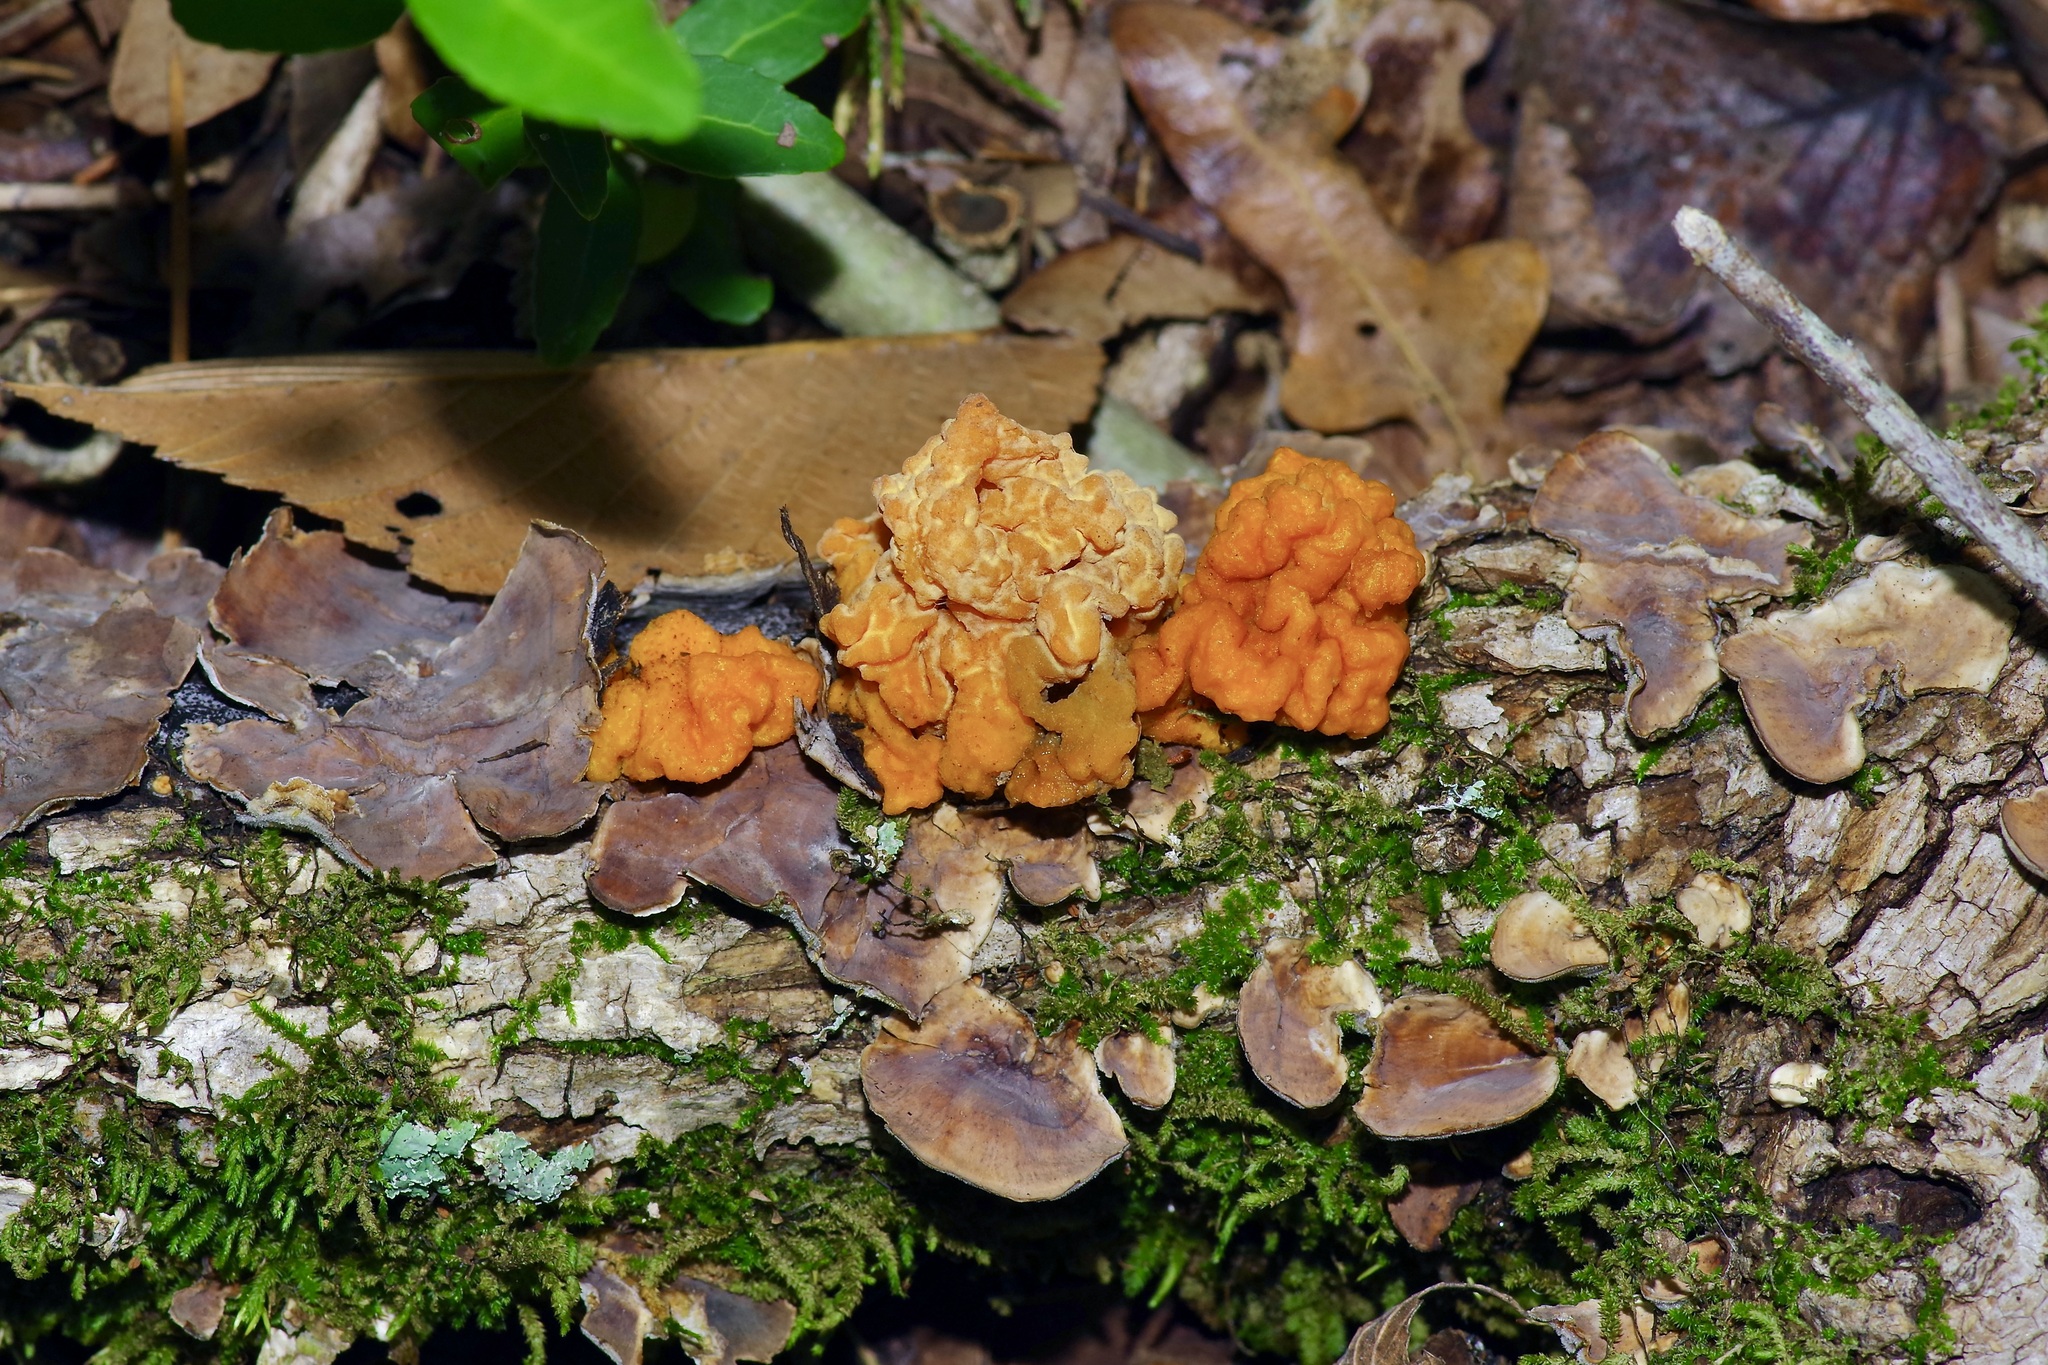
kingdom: Fungi
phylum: Basidiomycota
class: Tremellomycetes
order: Tremellales
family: Naemateliaceae
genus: Naematelia
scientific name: Naematelia aurantia
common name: Golden ear
